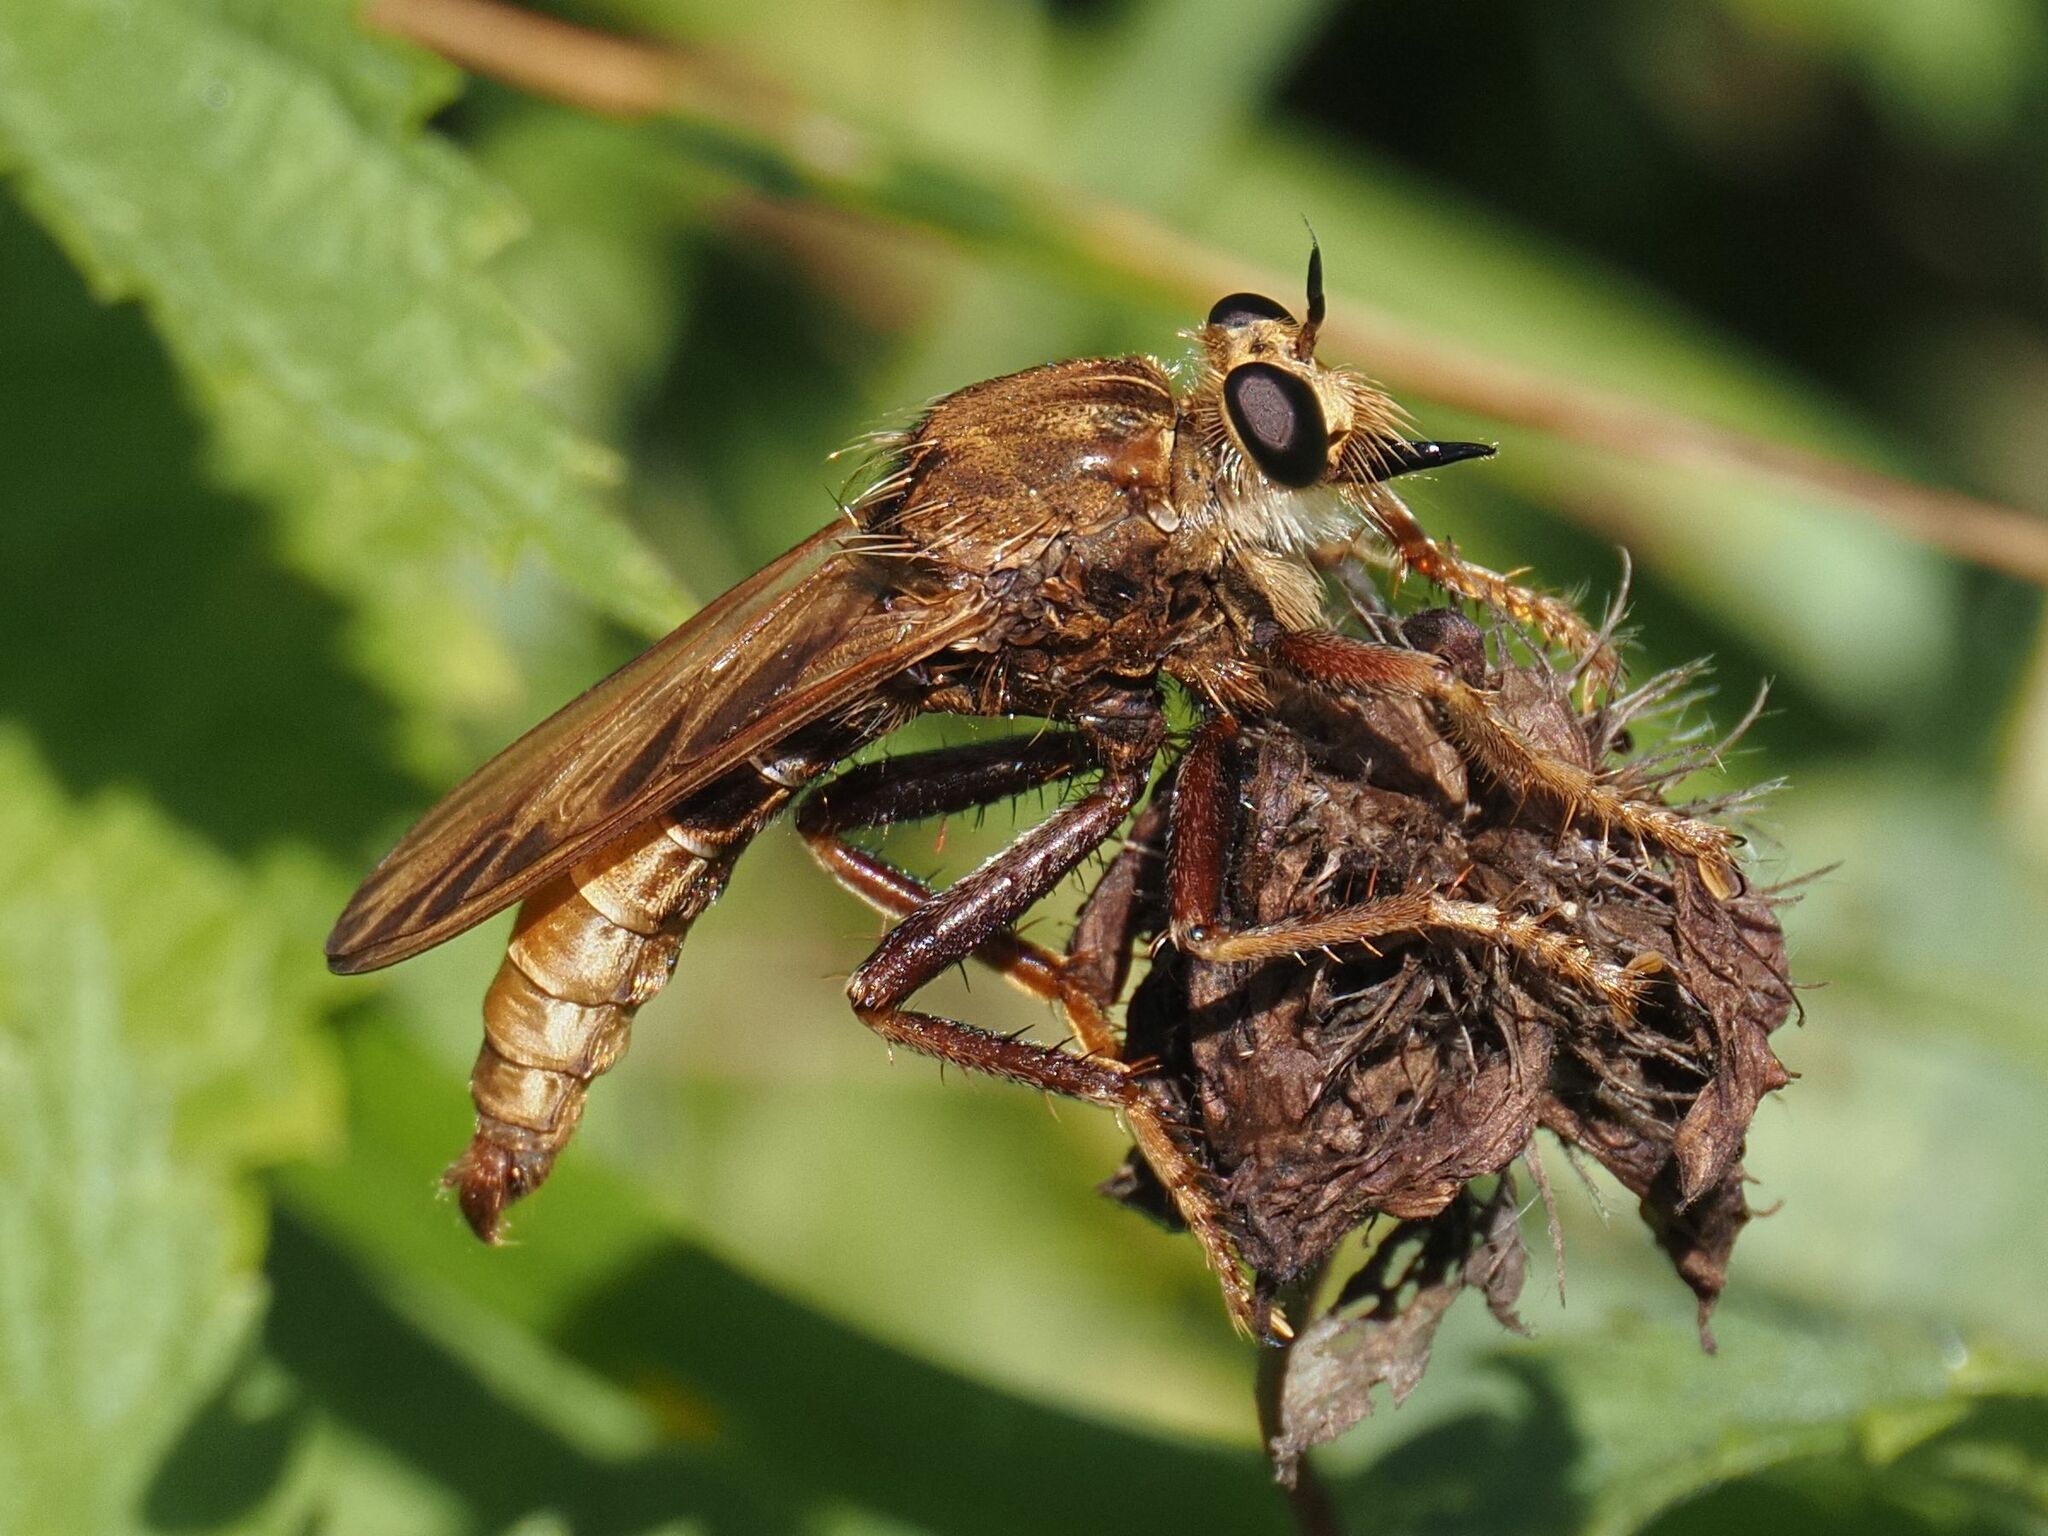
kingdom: Animalia
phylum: Arthropoda
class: Insecta
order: Diptera
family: Asilidae
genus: Asilus
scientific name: Asilus crabroniformis
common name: Hornet robberfly
